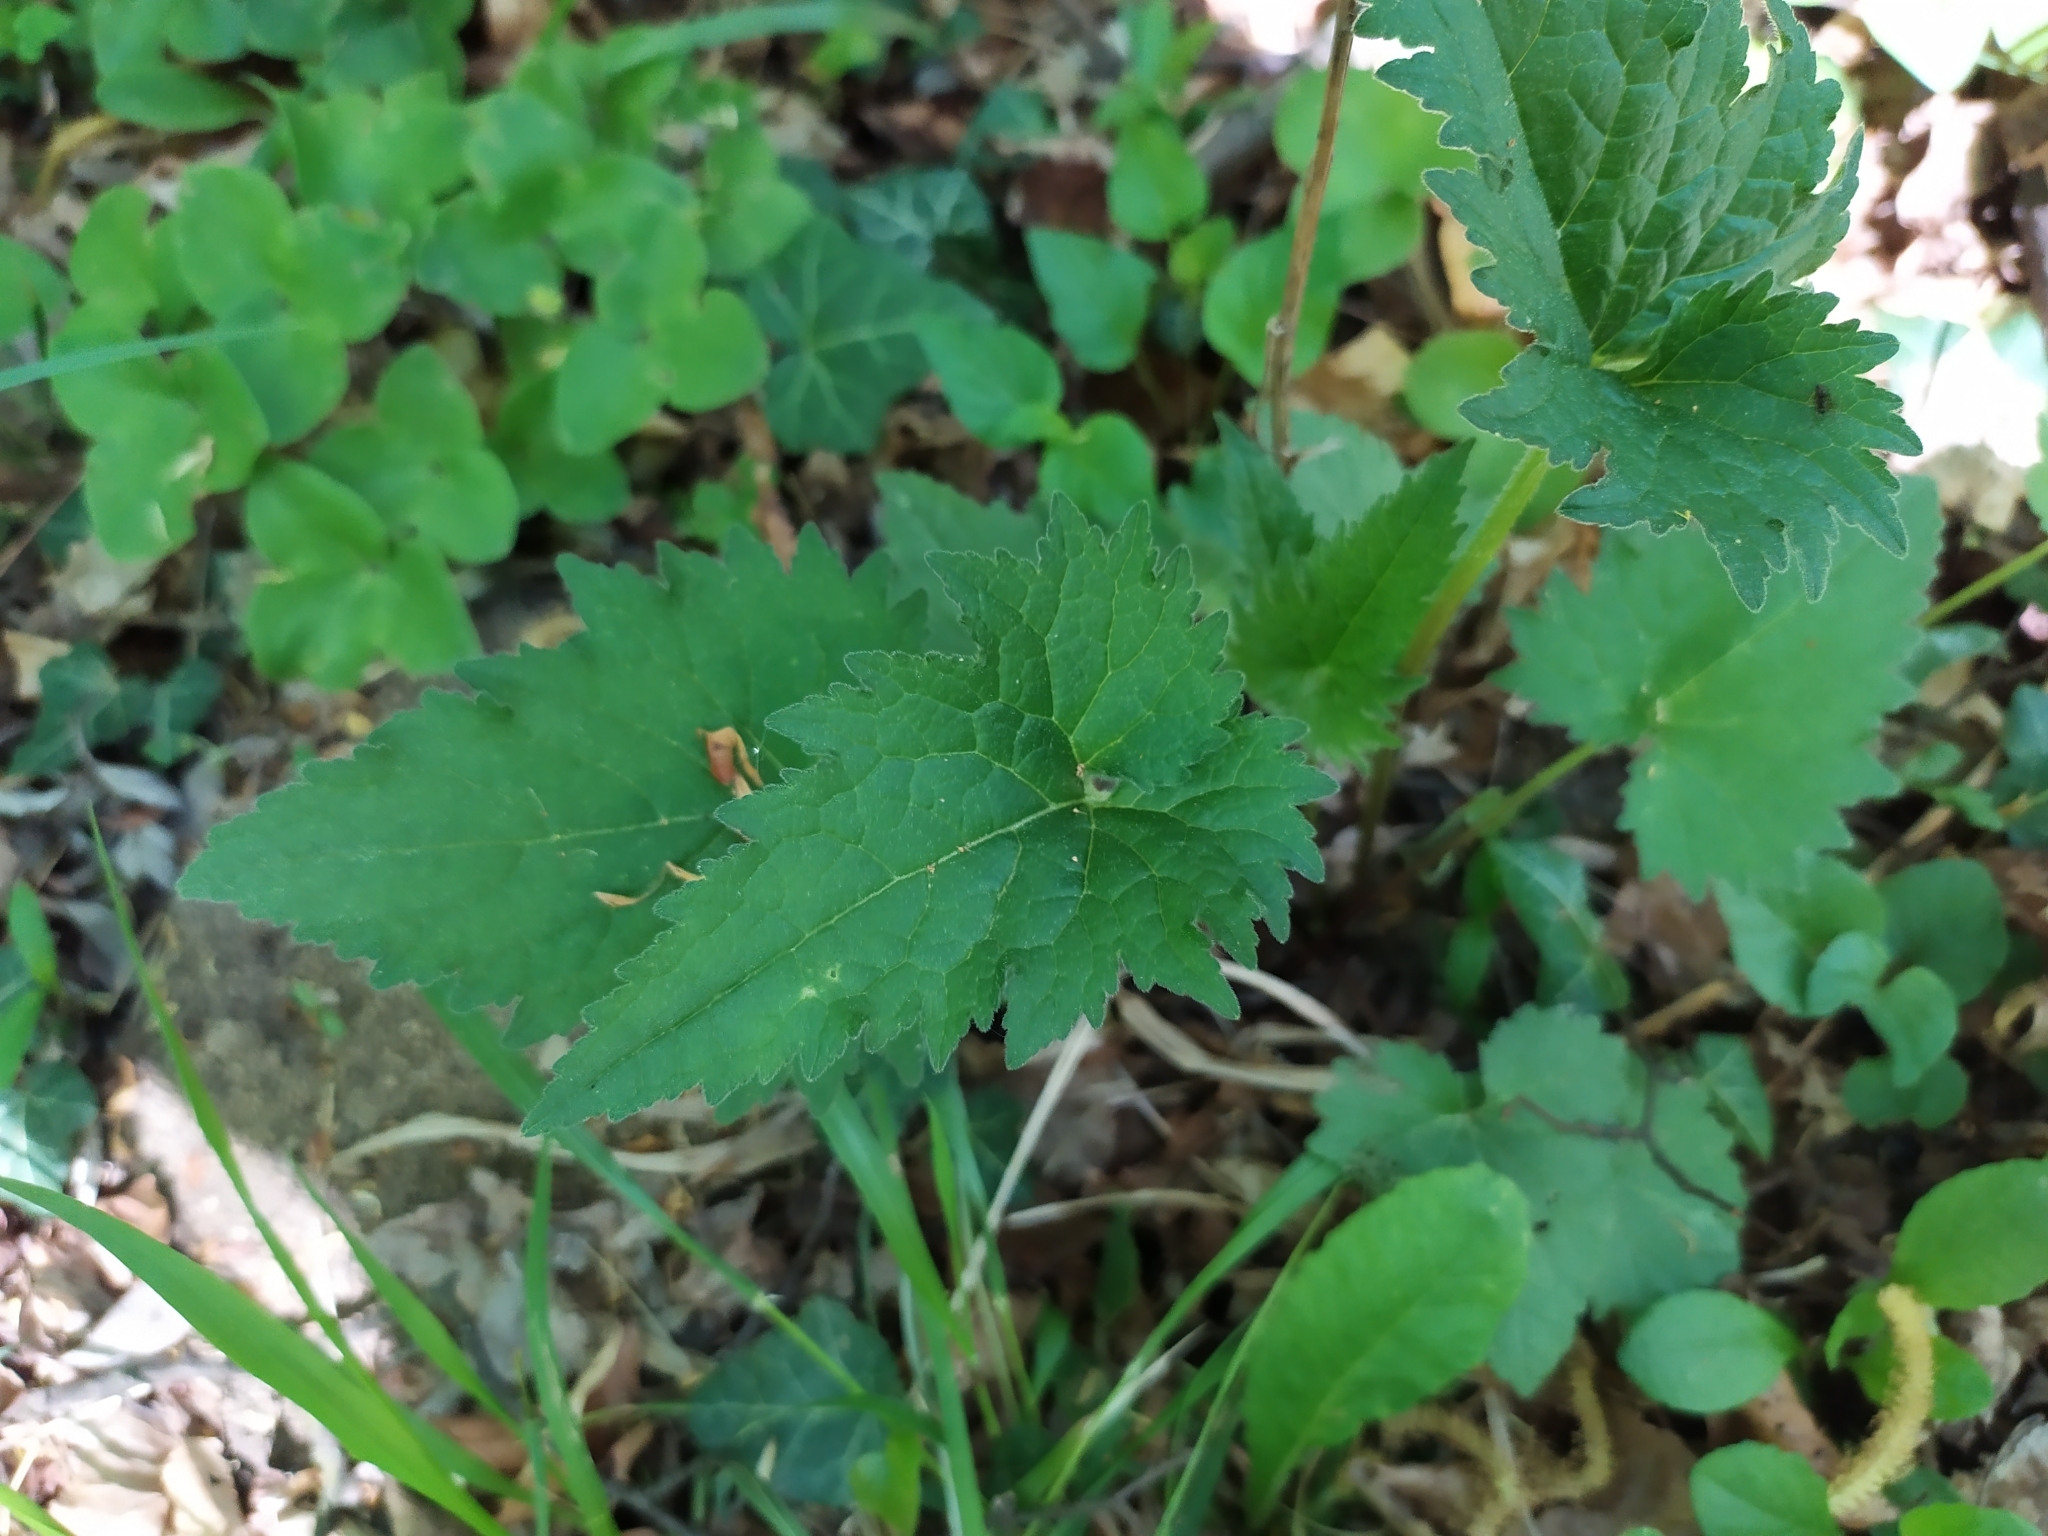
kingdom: Plantae
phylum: Tracheophyta
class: Magnoliopsida
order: Asterales
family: Campanulaceae
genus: Campanula
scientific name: Campanula trachelium
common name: Nettle-leaved bellflower
